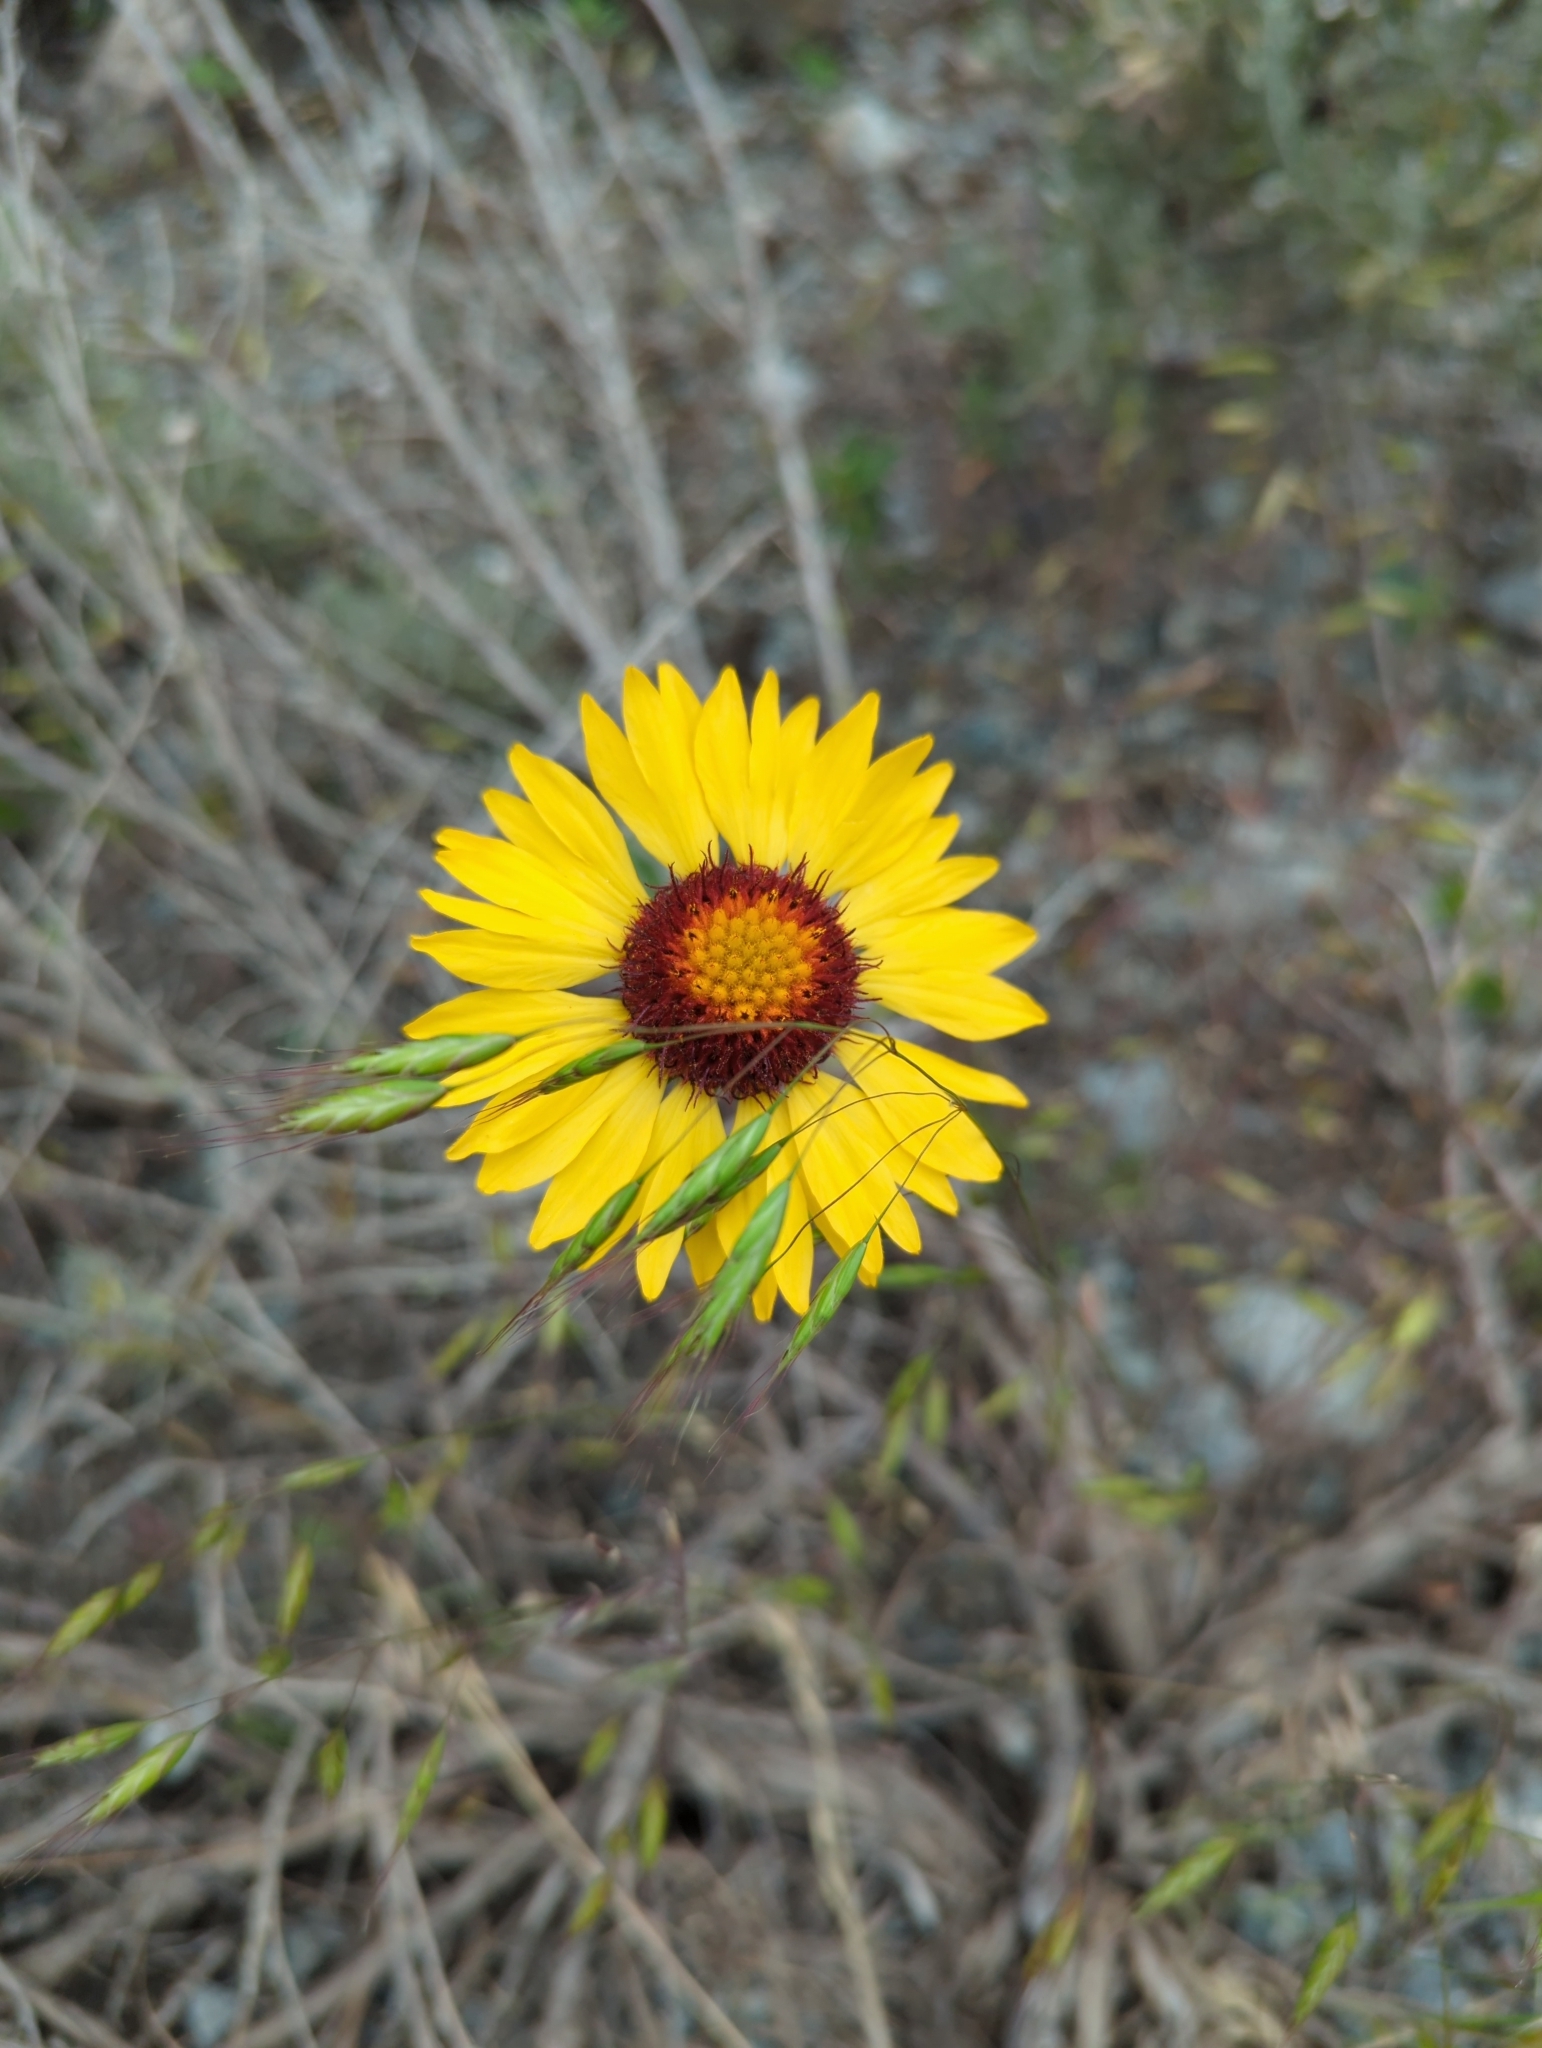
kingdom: Plantae
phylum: Tracheophyta
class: Magnoliopsida
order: Asterales
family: Asteraceae
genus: Gaillardia
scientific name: Gaillardia aristata
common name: Blanket-flower
